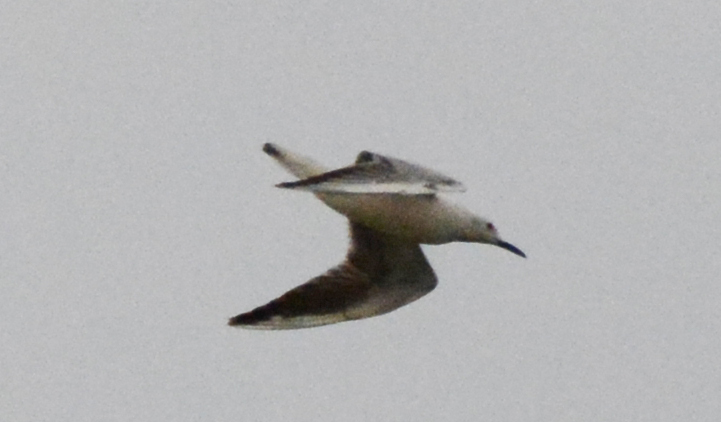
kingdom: Animalia
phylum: Chordata
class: Aves
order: Charadriiformes
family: Laridae
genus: Chroicocephalus
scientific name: Chroicocephalus genei
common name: Slender-billed gull
